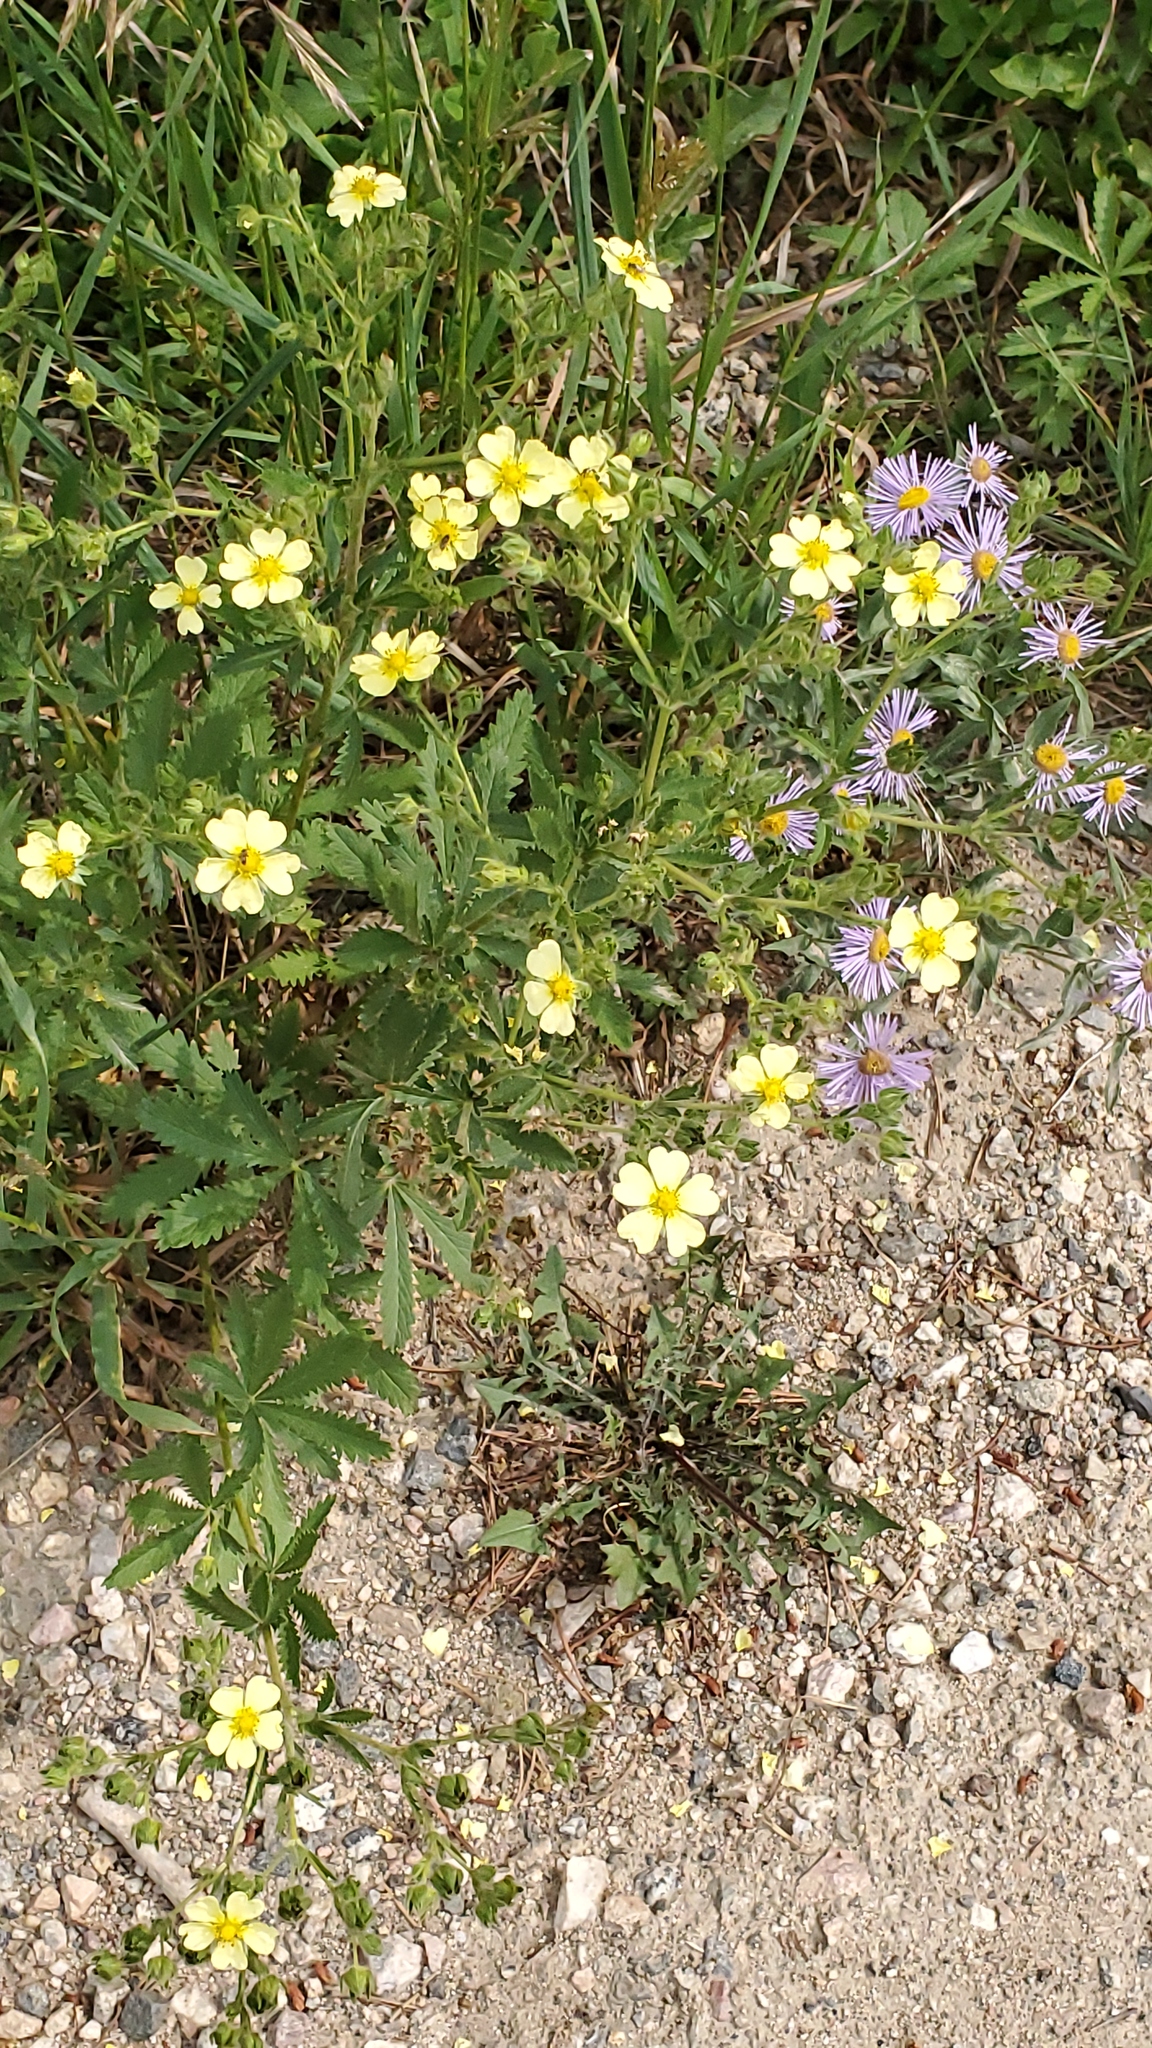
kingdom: Plantae
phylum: Tracheophyta
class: Magnoliopsida
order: Rosales
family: Rosaceae
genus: Potentilla
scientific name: Potentilla recta
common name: Sulphur cinquefoil
